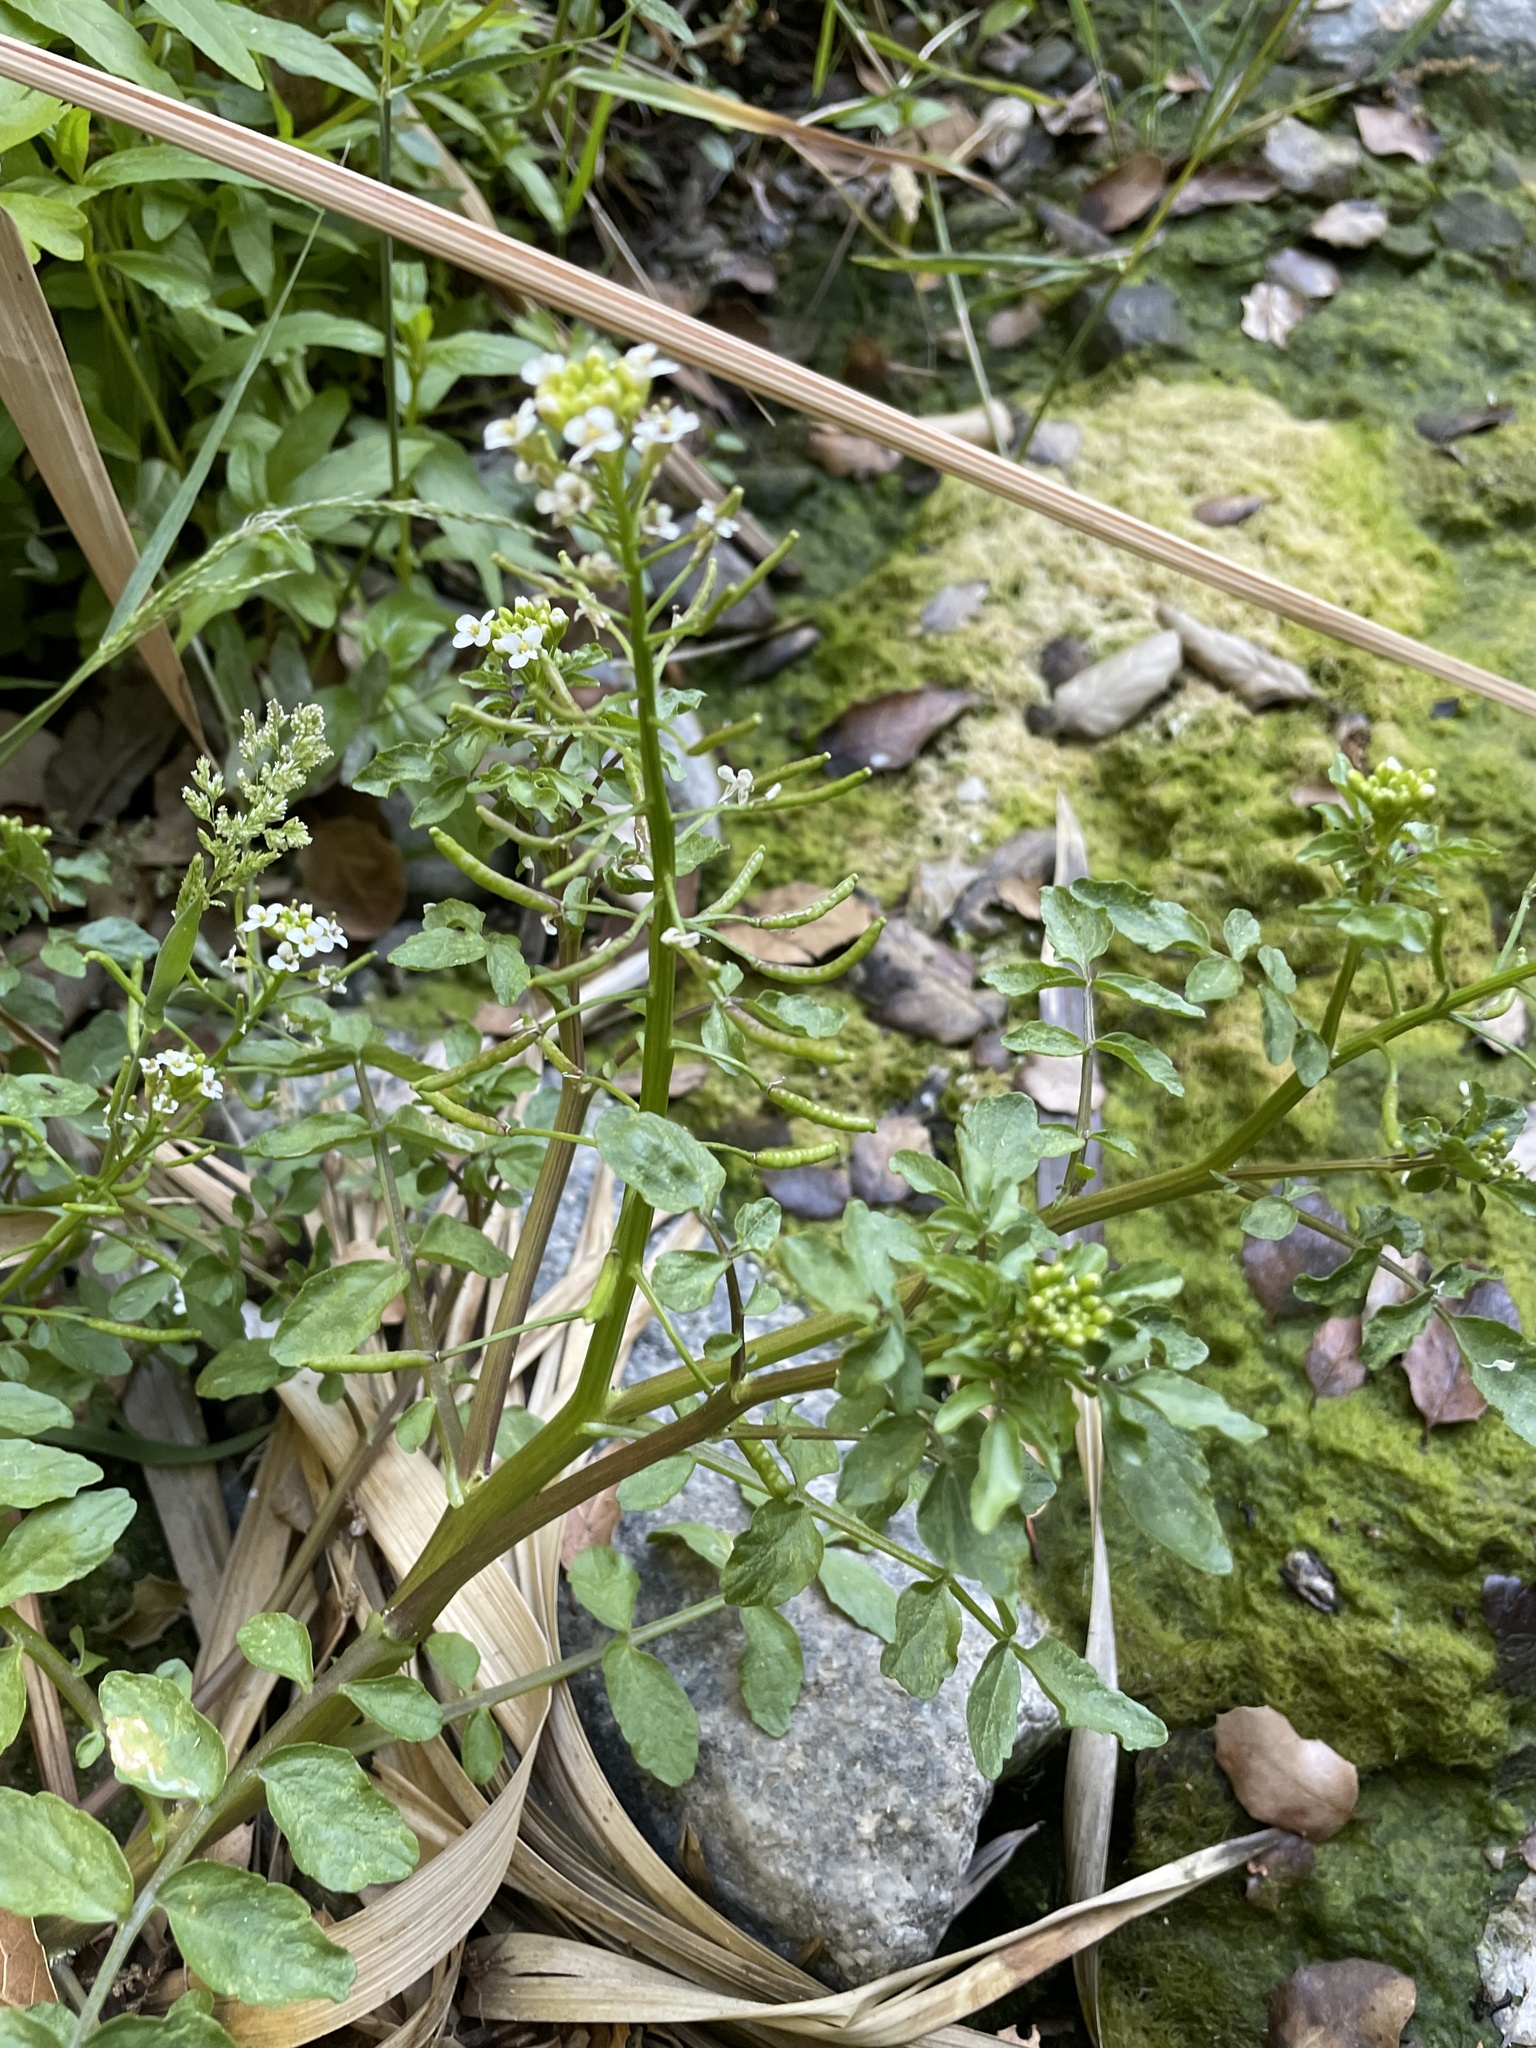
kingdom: Plantae
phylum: Tracheophyta
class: Magnoliopsida
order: Brassicales
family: Brassicaceae
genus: Nasturtium
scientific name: Nasturtium officinale
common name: Watercress
